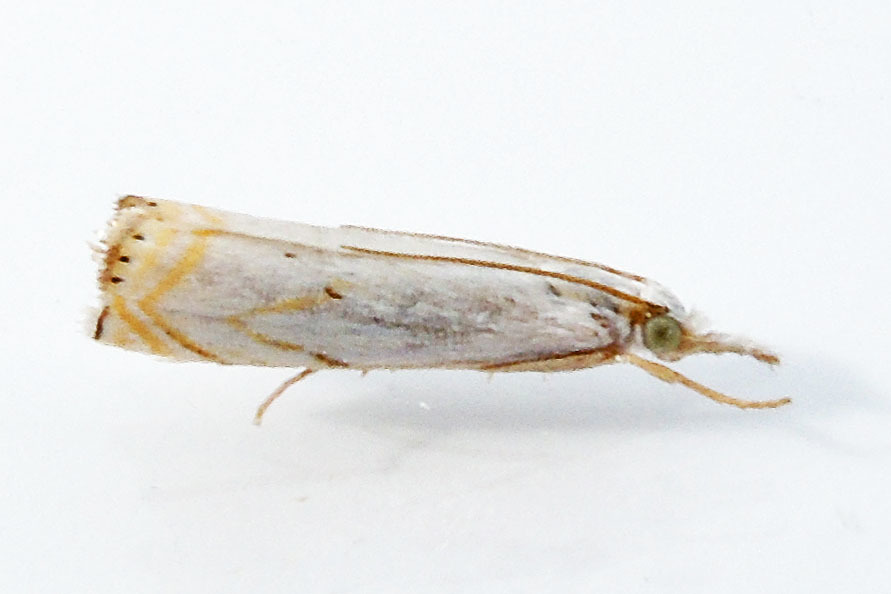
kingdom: Animalia
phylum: Arthropoda
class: Insecta
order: Lepidoptera
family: Crambidae
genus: Crambus
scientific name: Crambus albellus
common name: Small white grass-veneer
